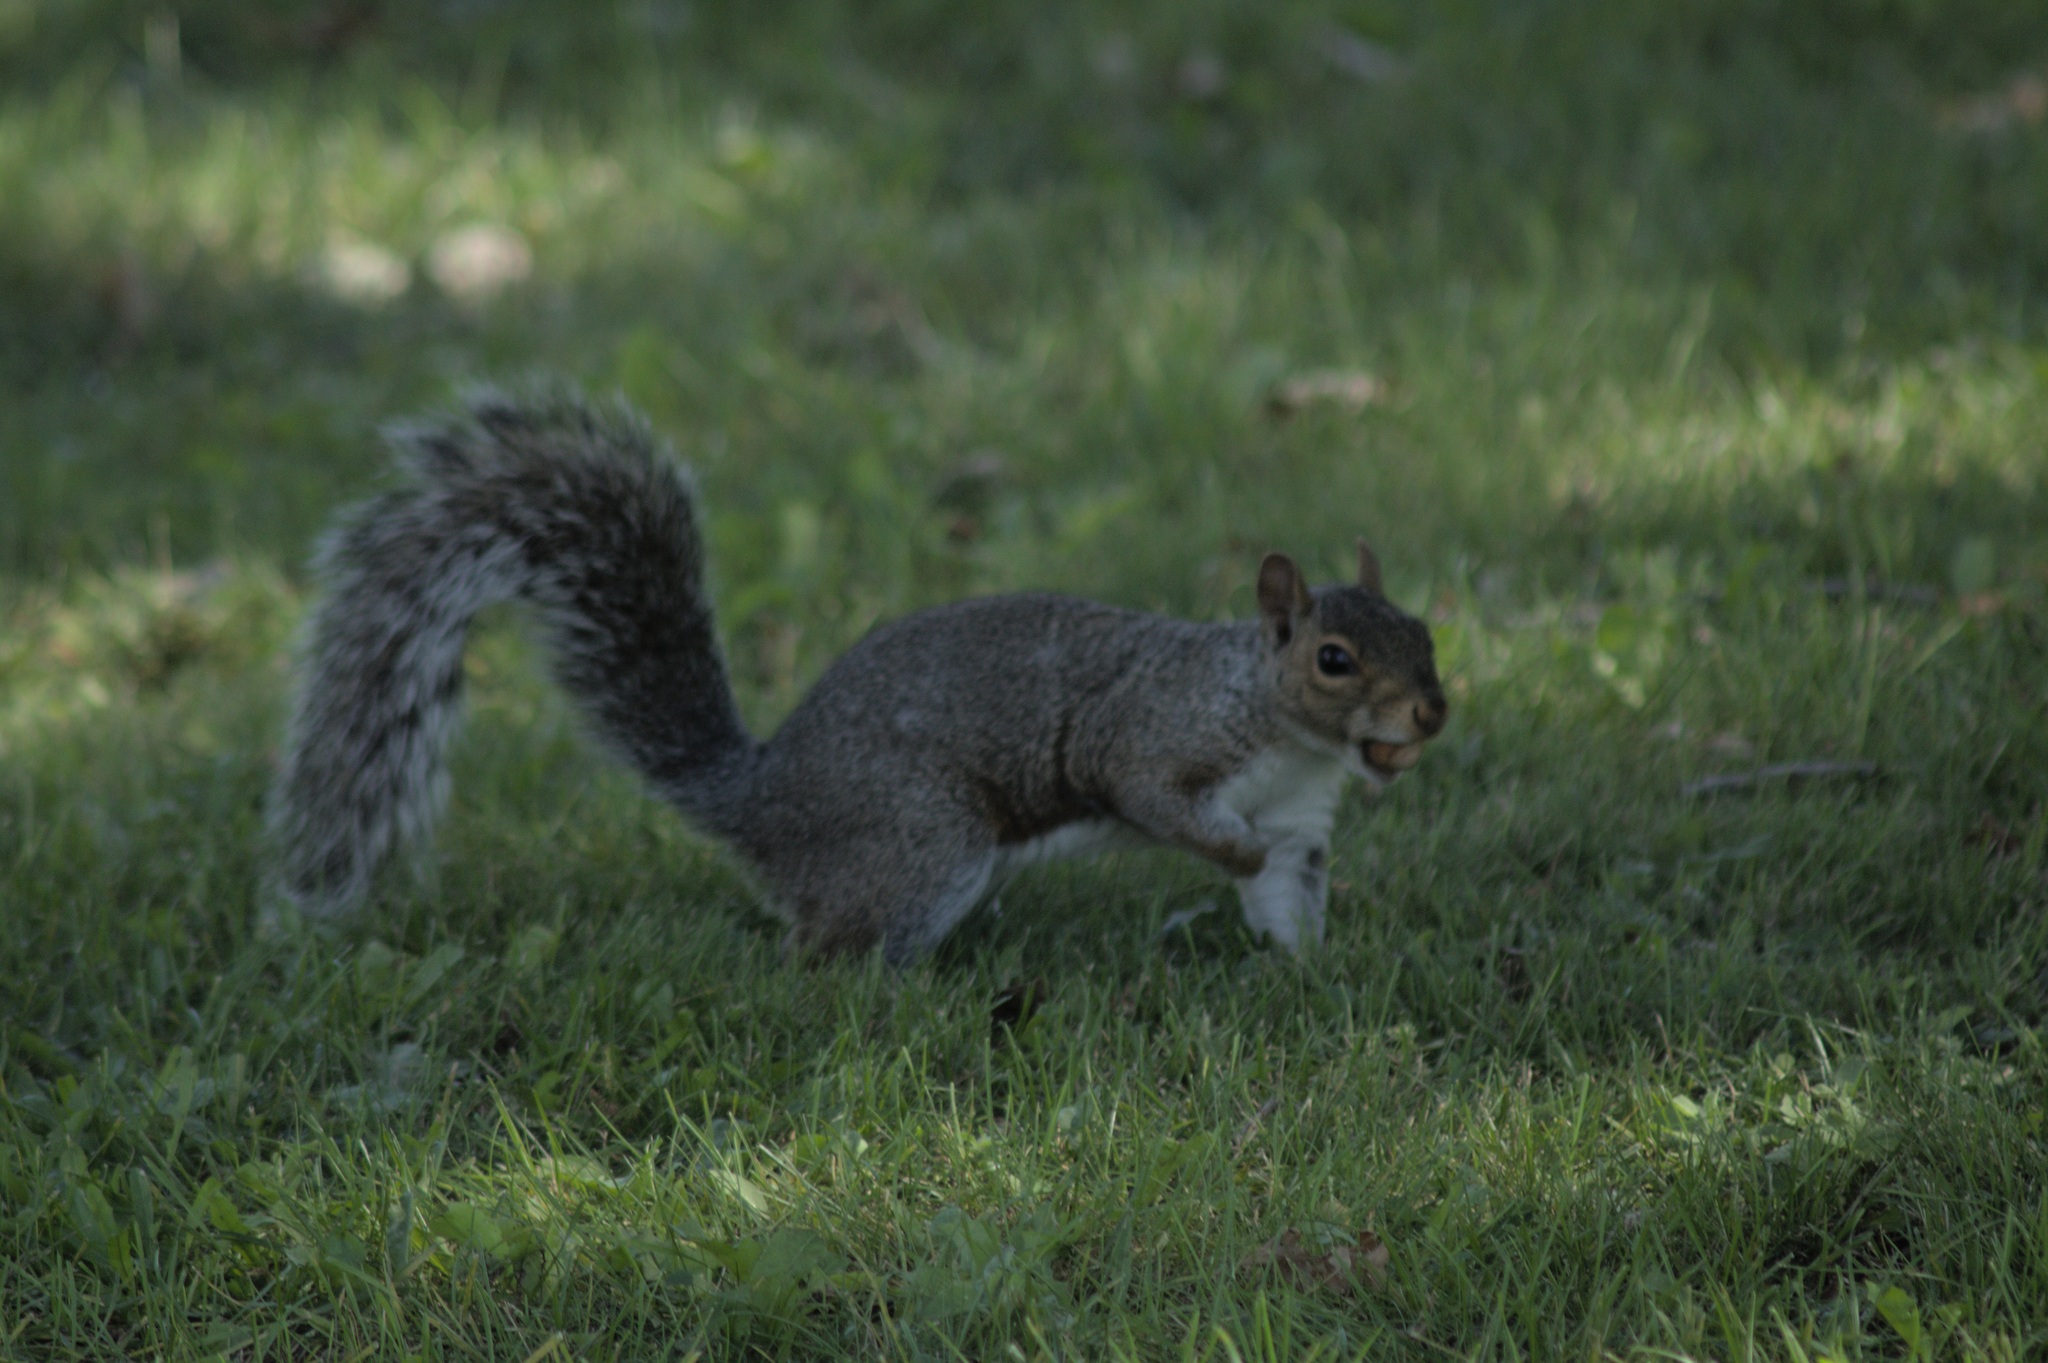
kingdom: Animalia
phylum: Chordata
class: Mammalia
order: Rodentia
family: Sciuridae
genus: Sciurus
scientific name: Sciurus carolinensis
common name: Eastern gray squirrel
